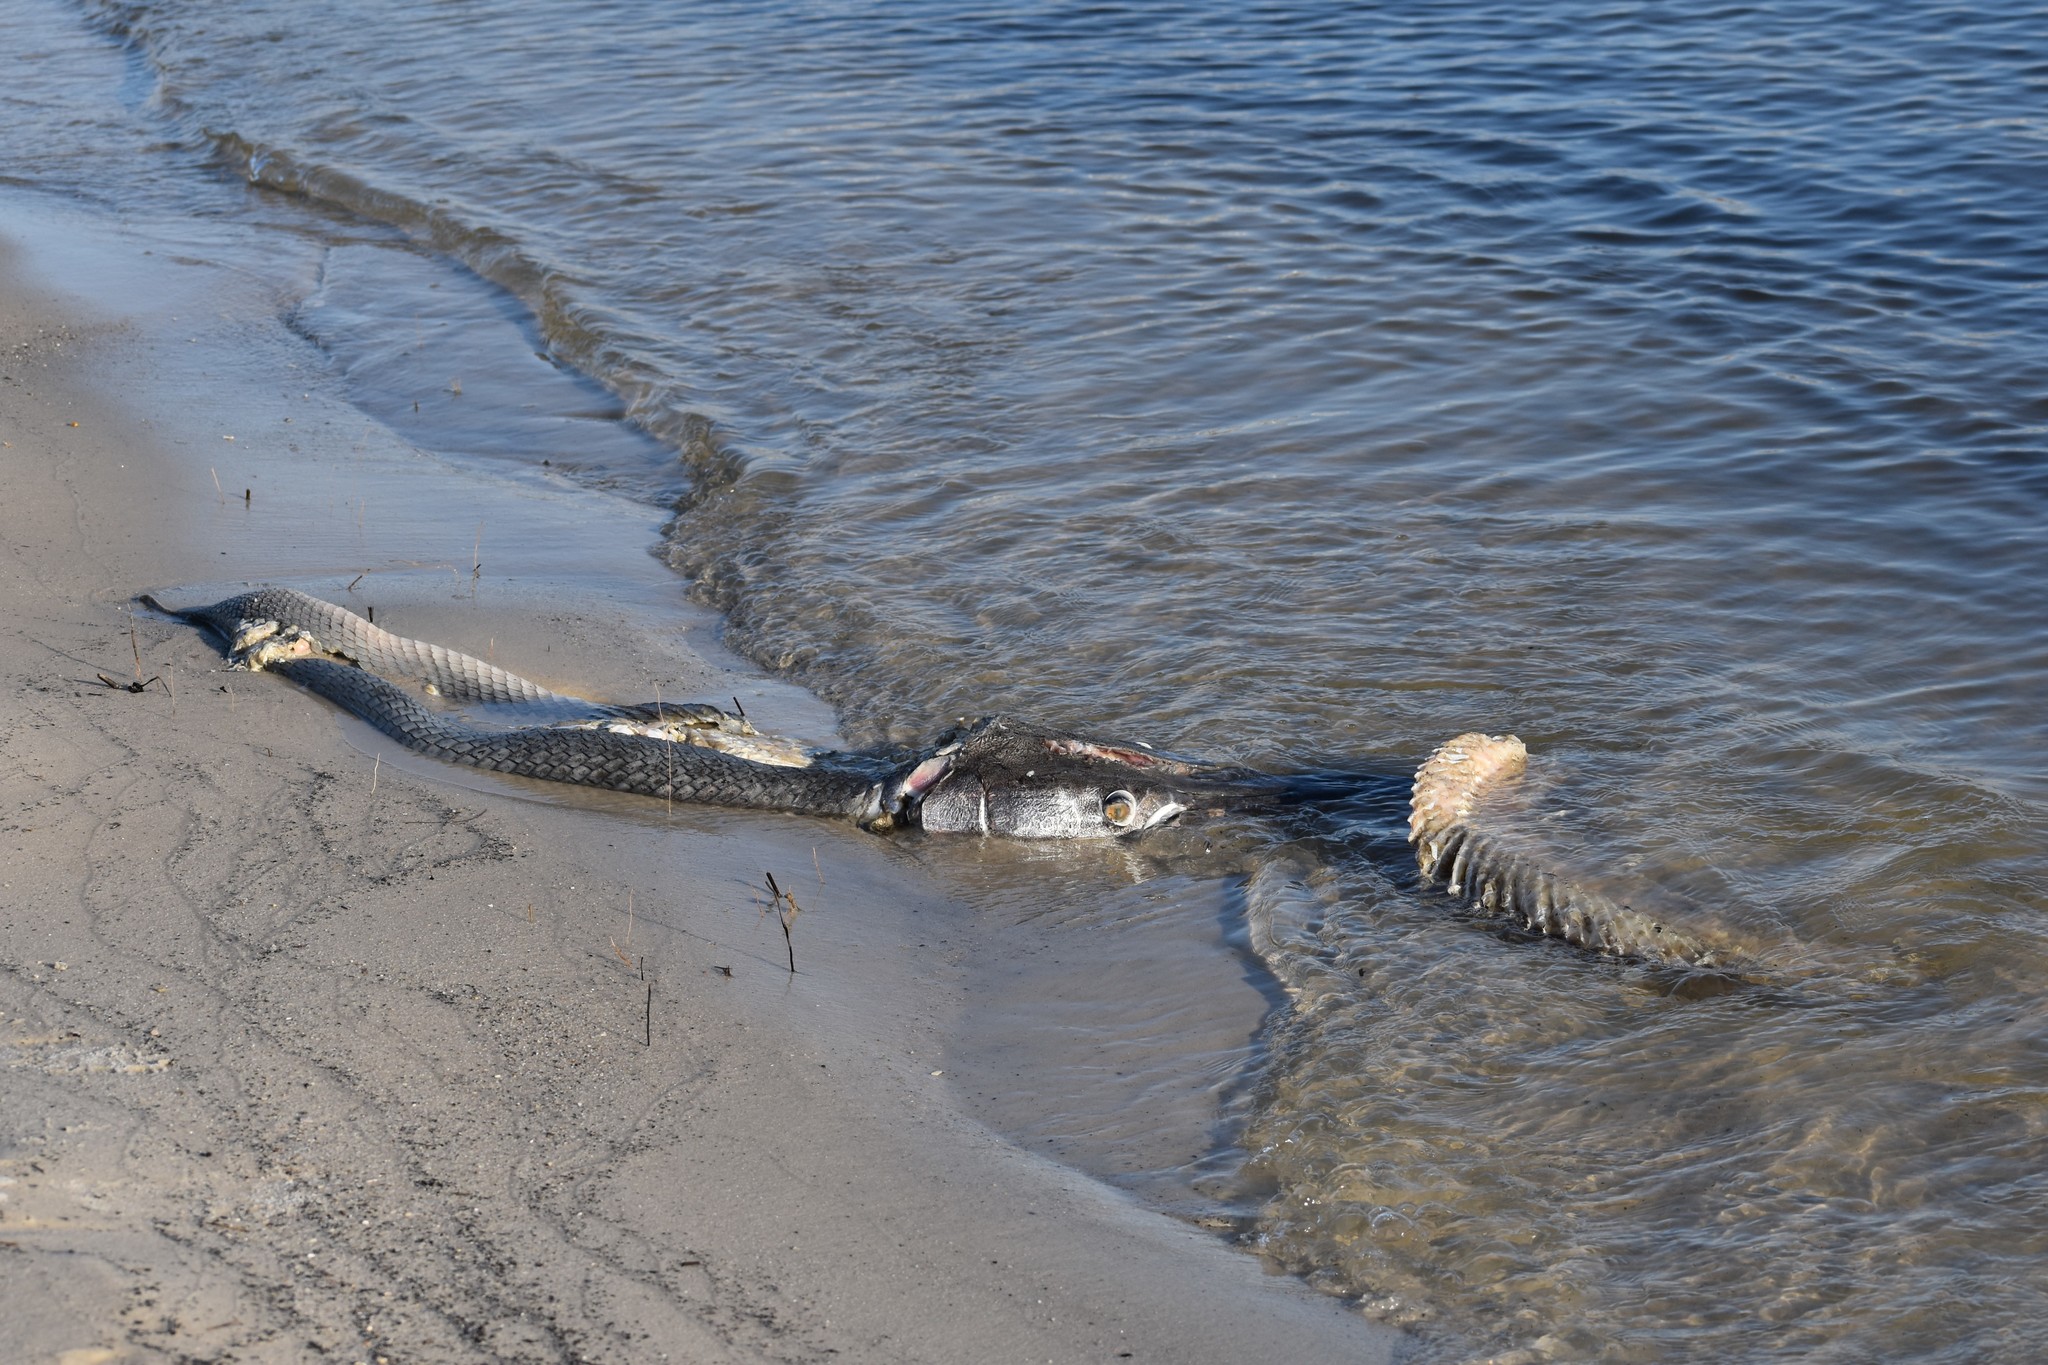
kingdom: Animalia
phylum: Chordata
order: Lepisosteiformes
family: Lepisosteidae
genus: Atractosteus
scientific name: Atractosteus spatula
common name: Alligator gar
